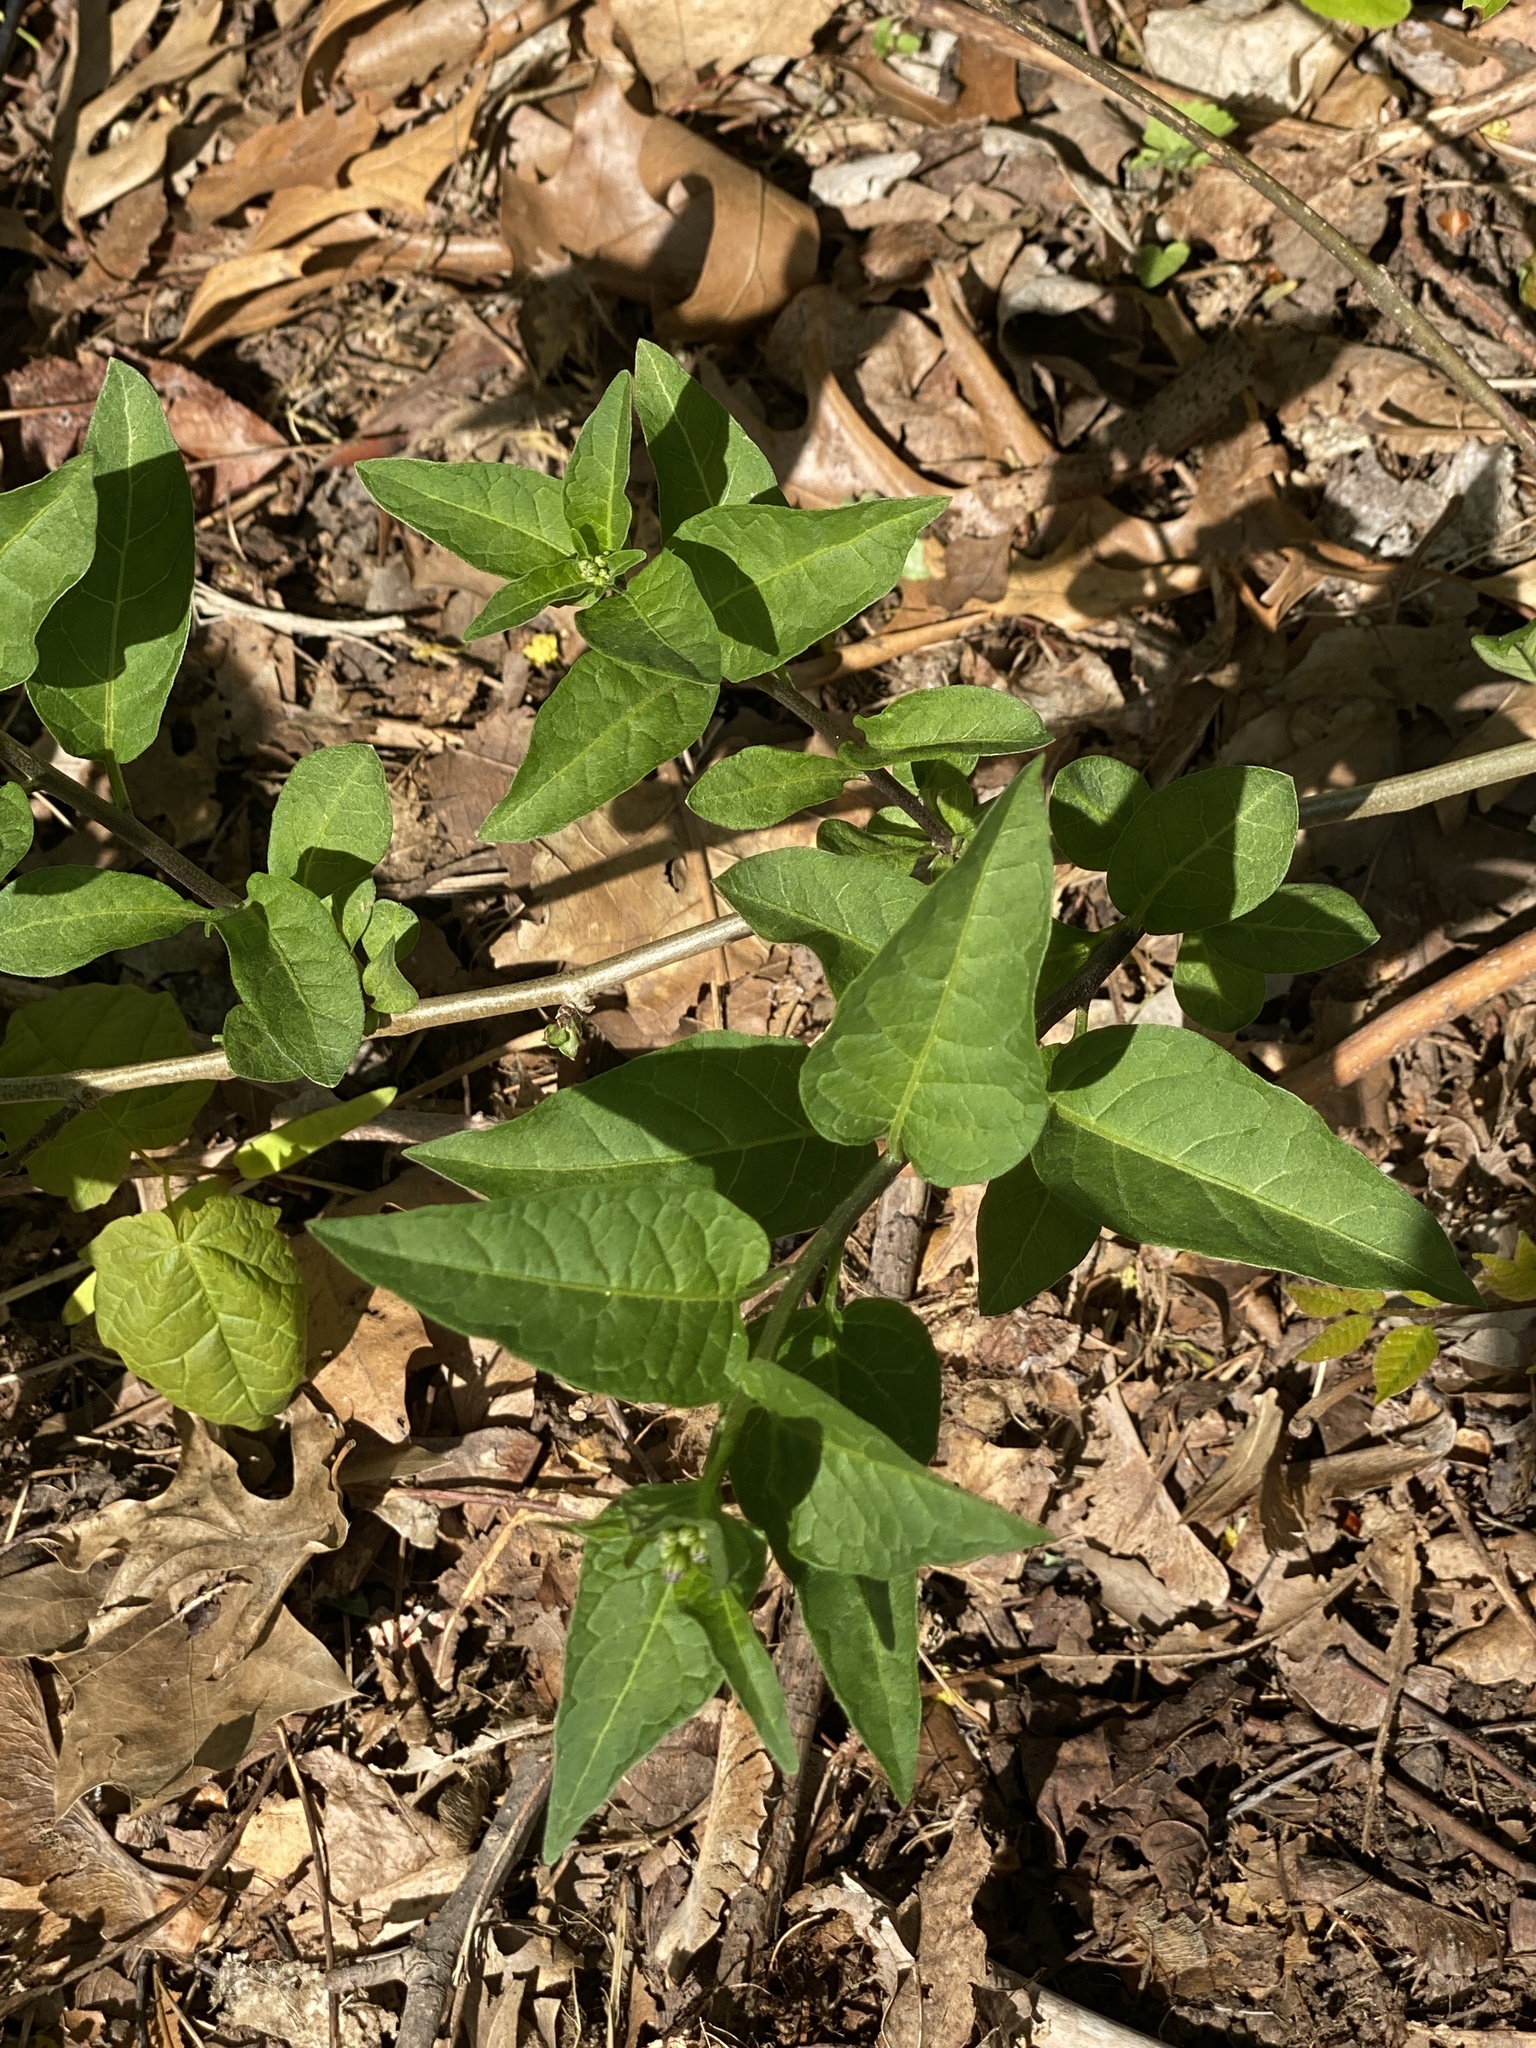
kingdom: Plantae
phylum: Tracheophyta
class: Magnoliopsida
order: Solanales
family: Solanaceae
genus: Solanum
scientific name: Solanum dulcamara
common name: Climbing nightshade
